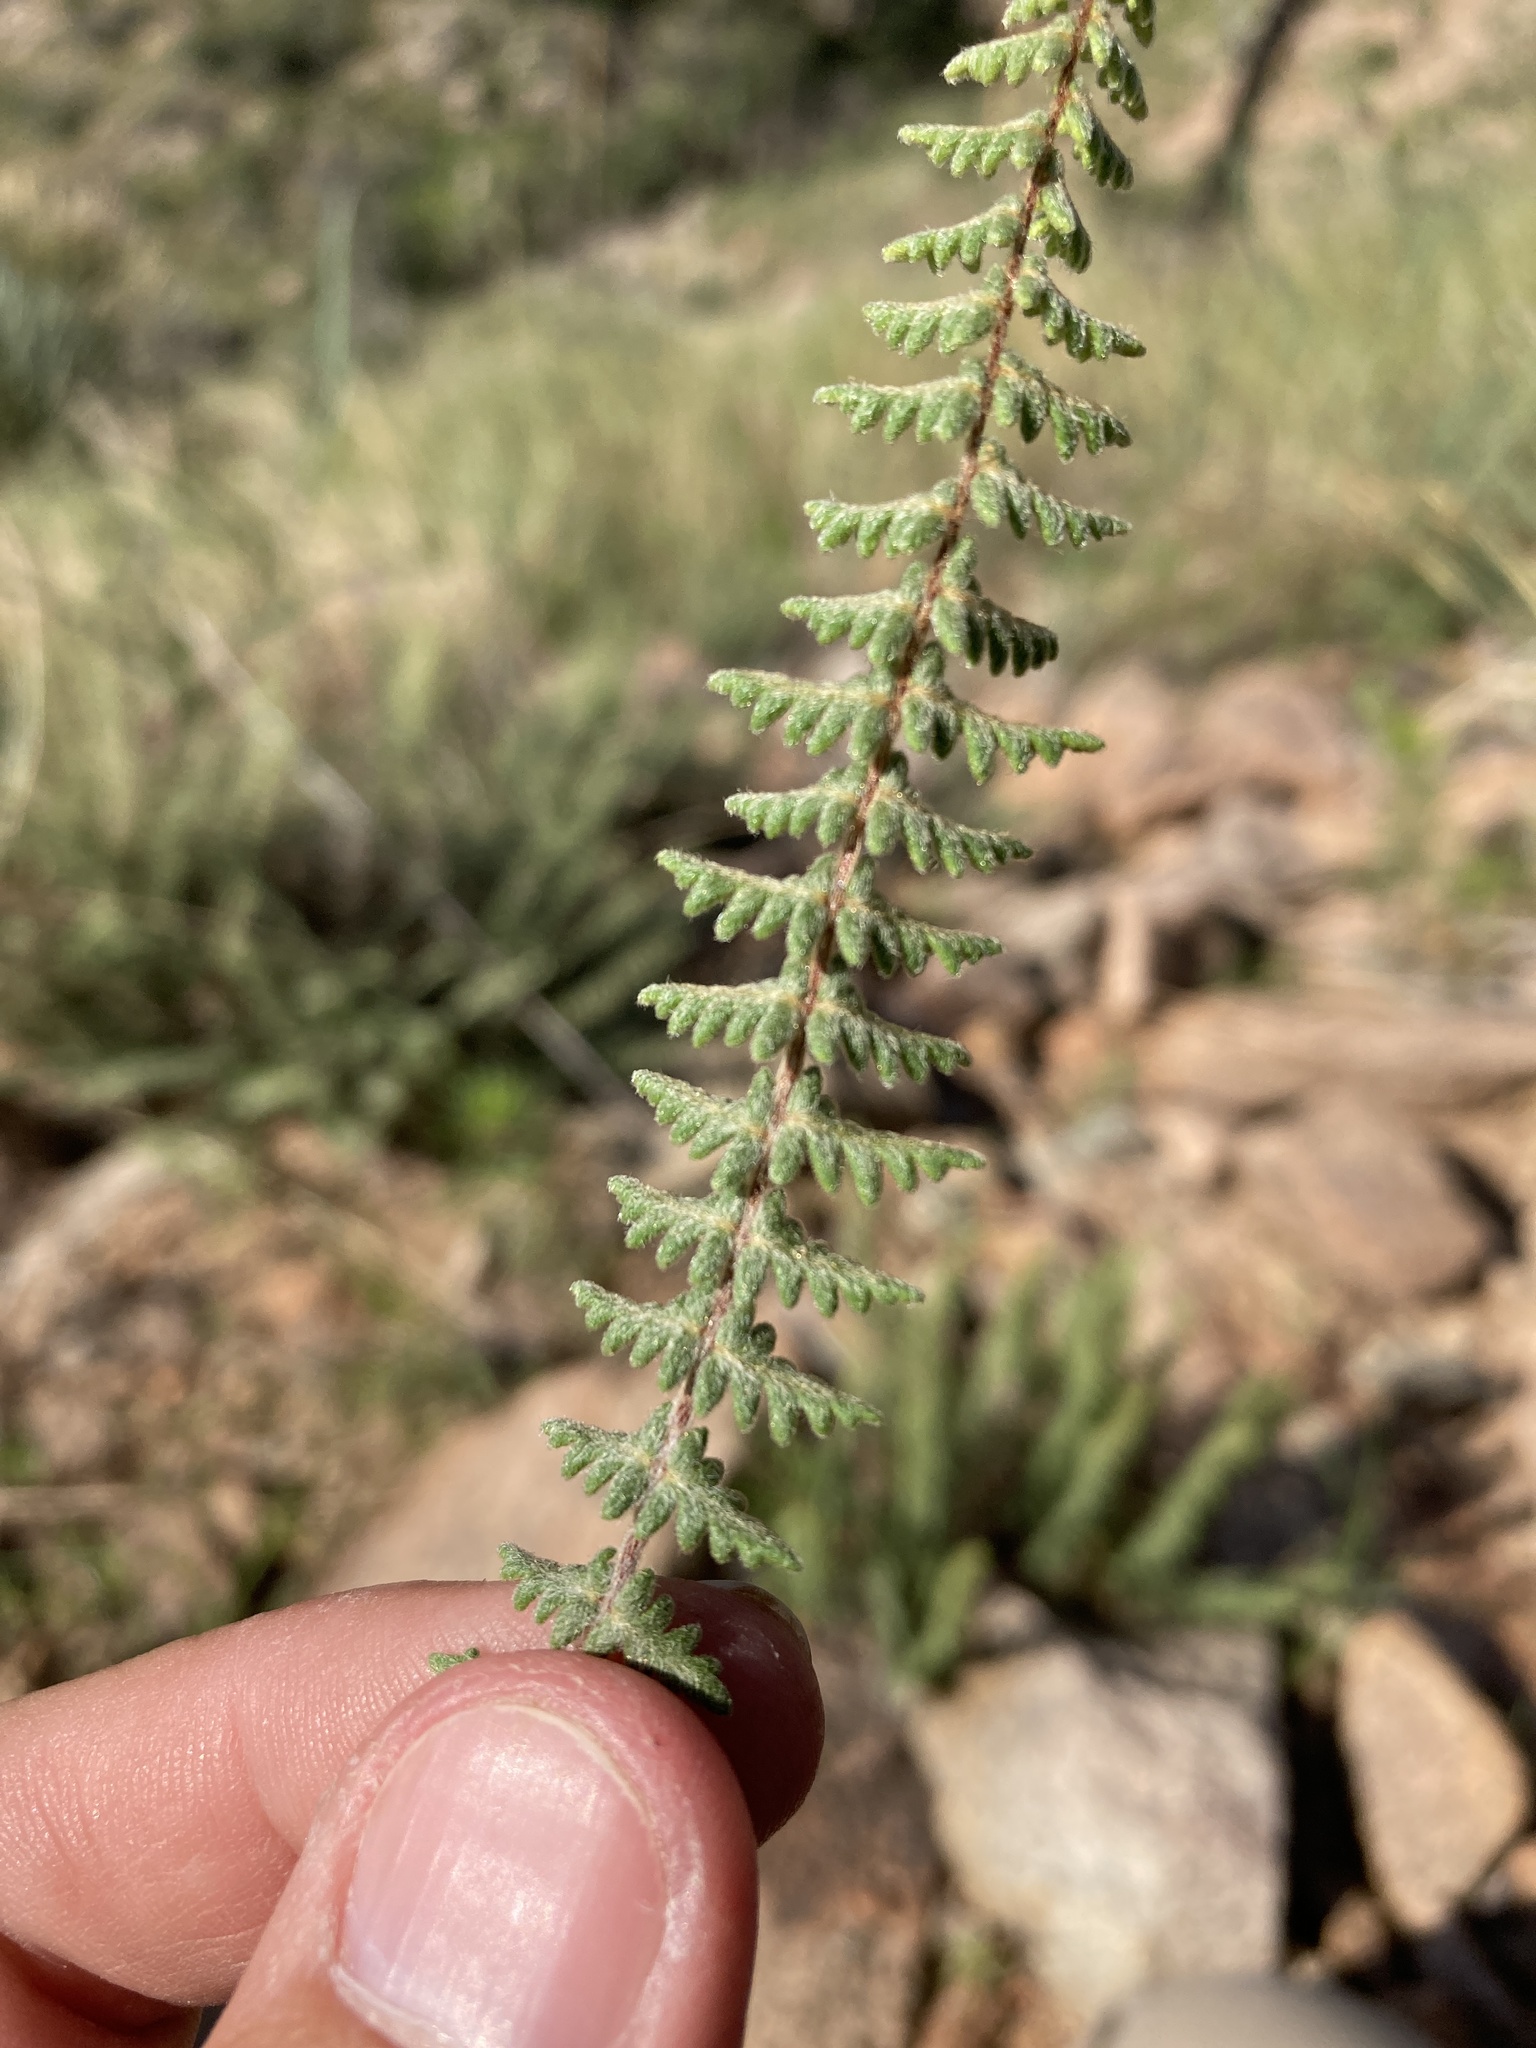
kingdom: Plantae
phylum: Tracheophyta
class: Polypodiopsida
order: Polypodiales
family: Pteridaceae
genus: Myriopteris
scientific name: Myriopteris aurea
